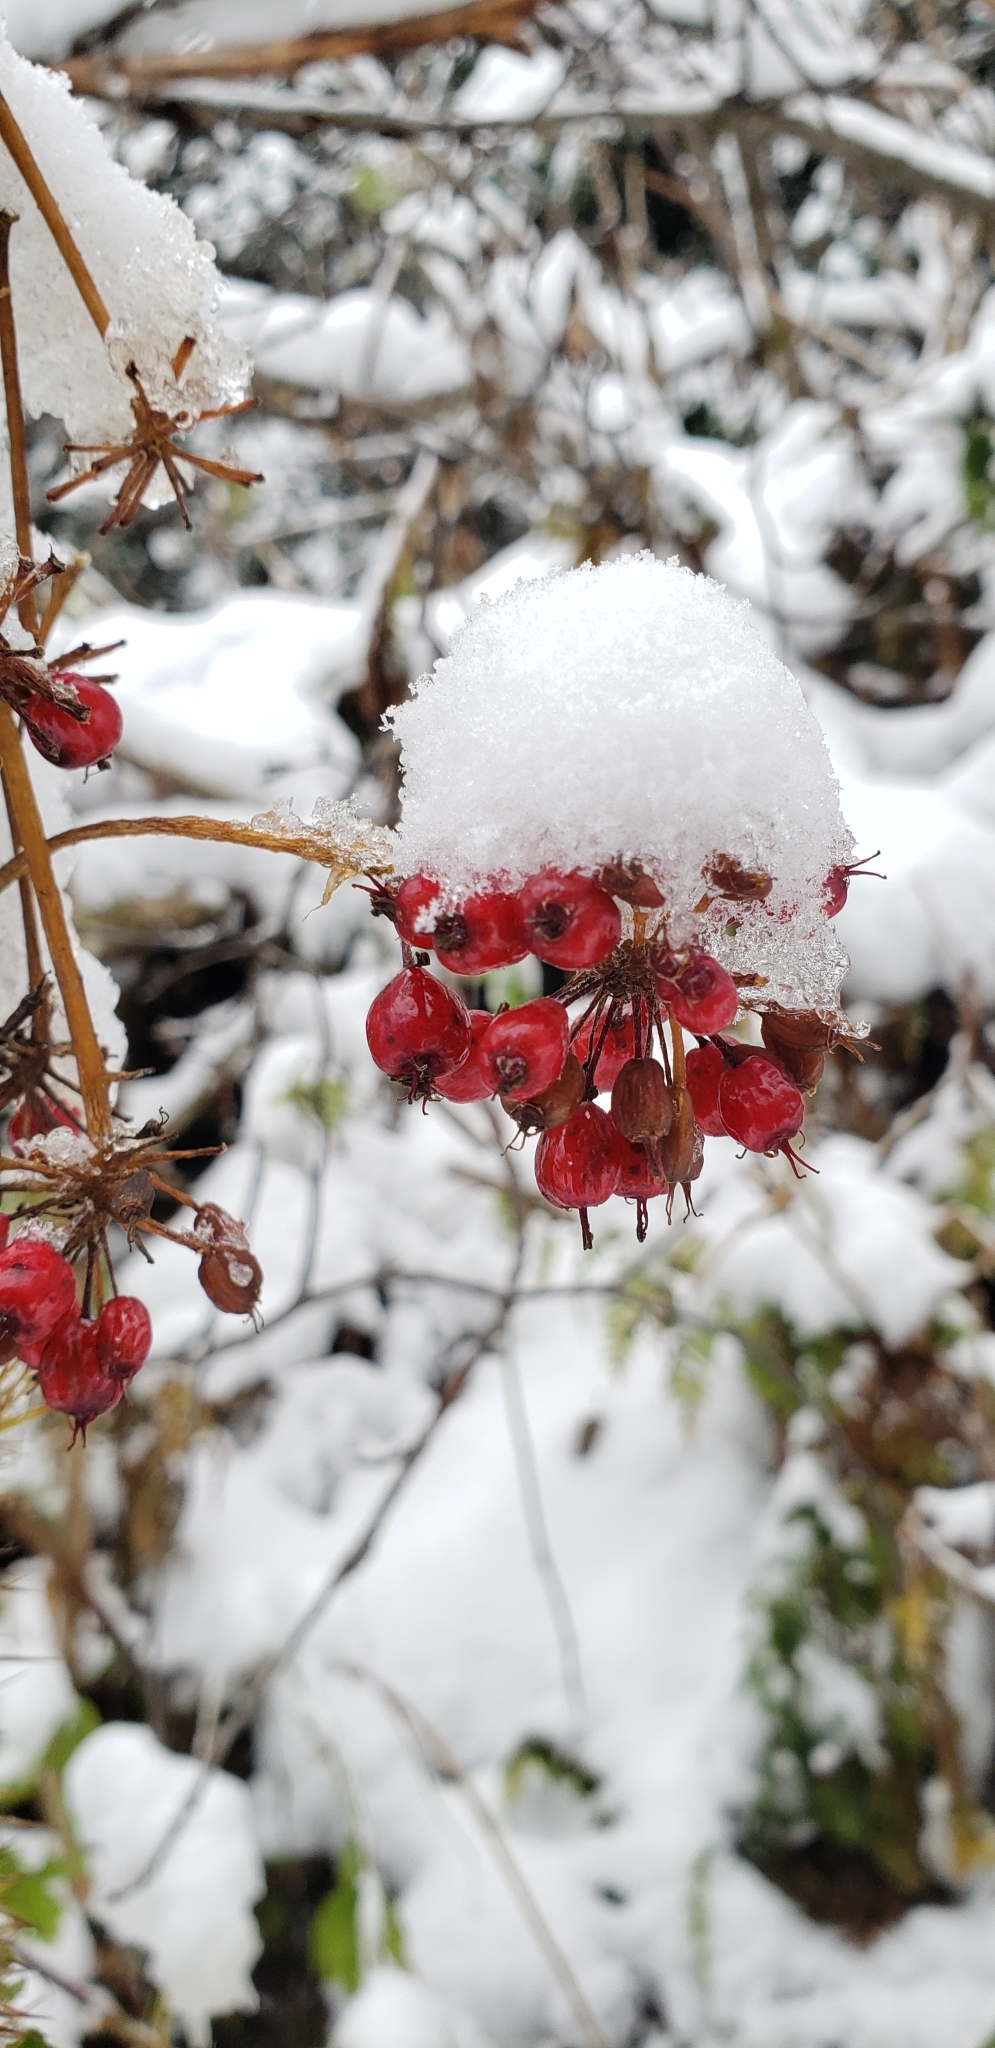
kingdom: Plantae
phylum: Tracheophyta
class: Magnoliopsida
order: Apiales
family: Araliaceae
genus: Oplopanax
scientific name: Oplopanax horridus
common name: Devil's walking-stick
